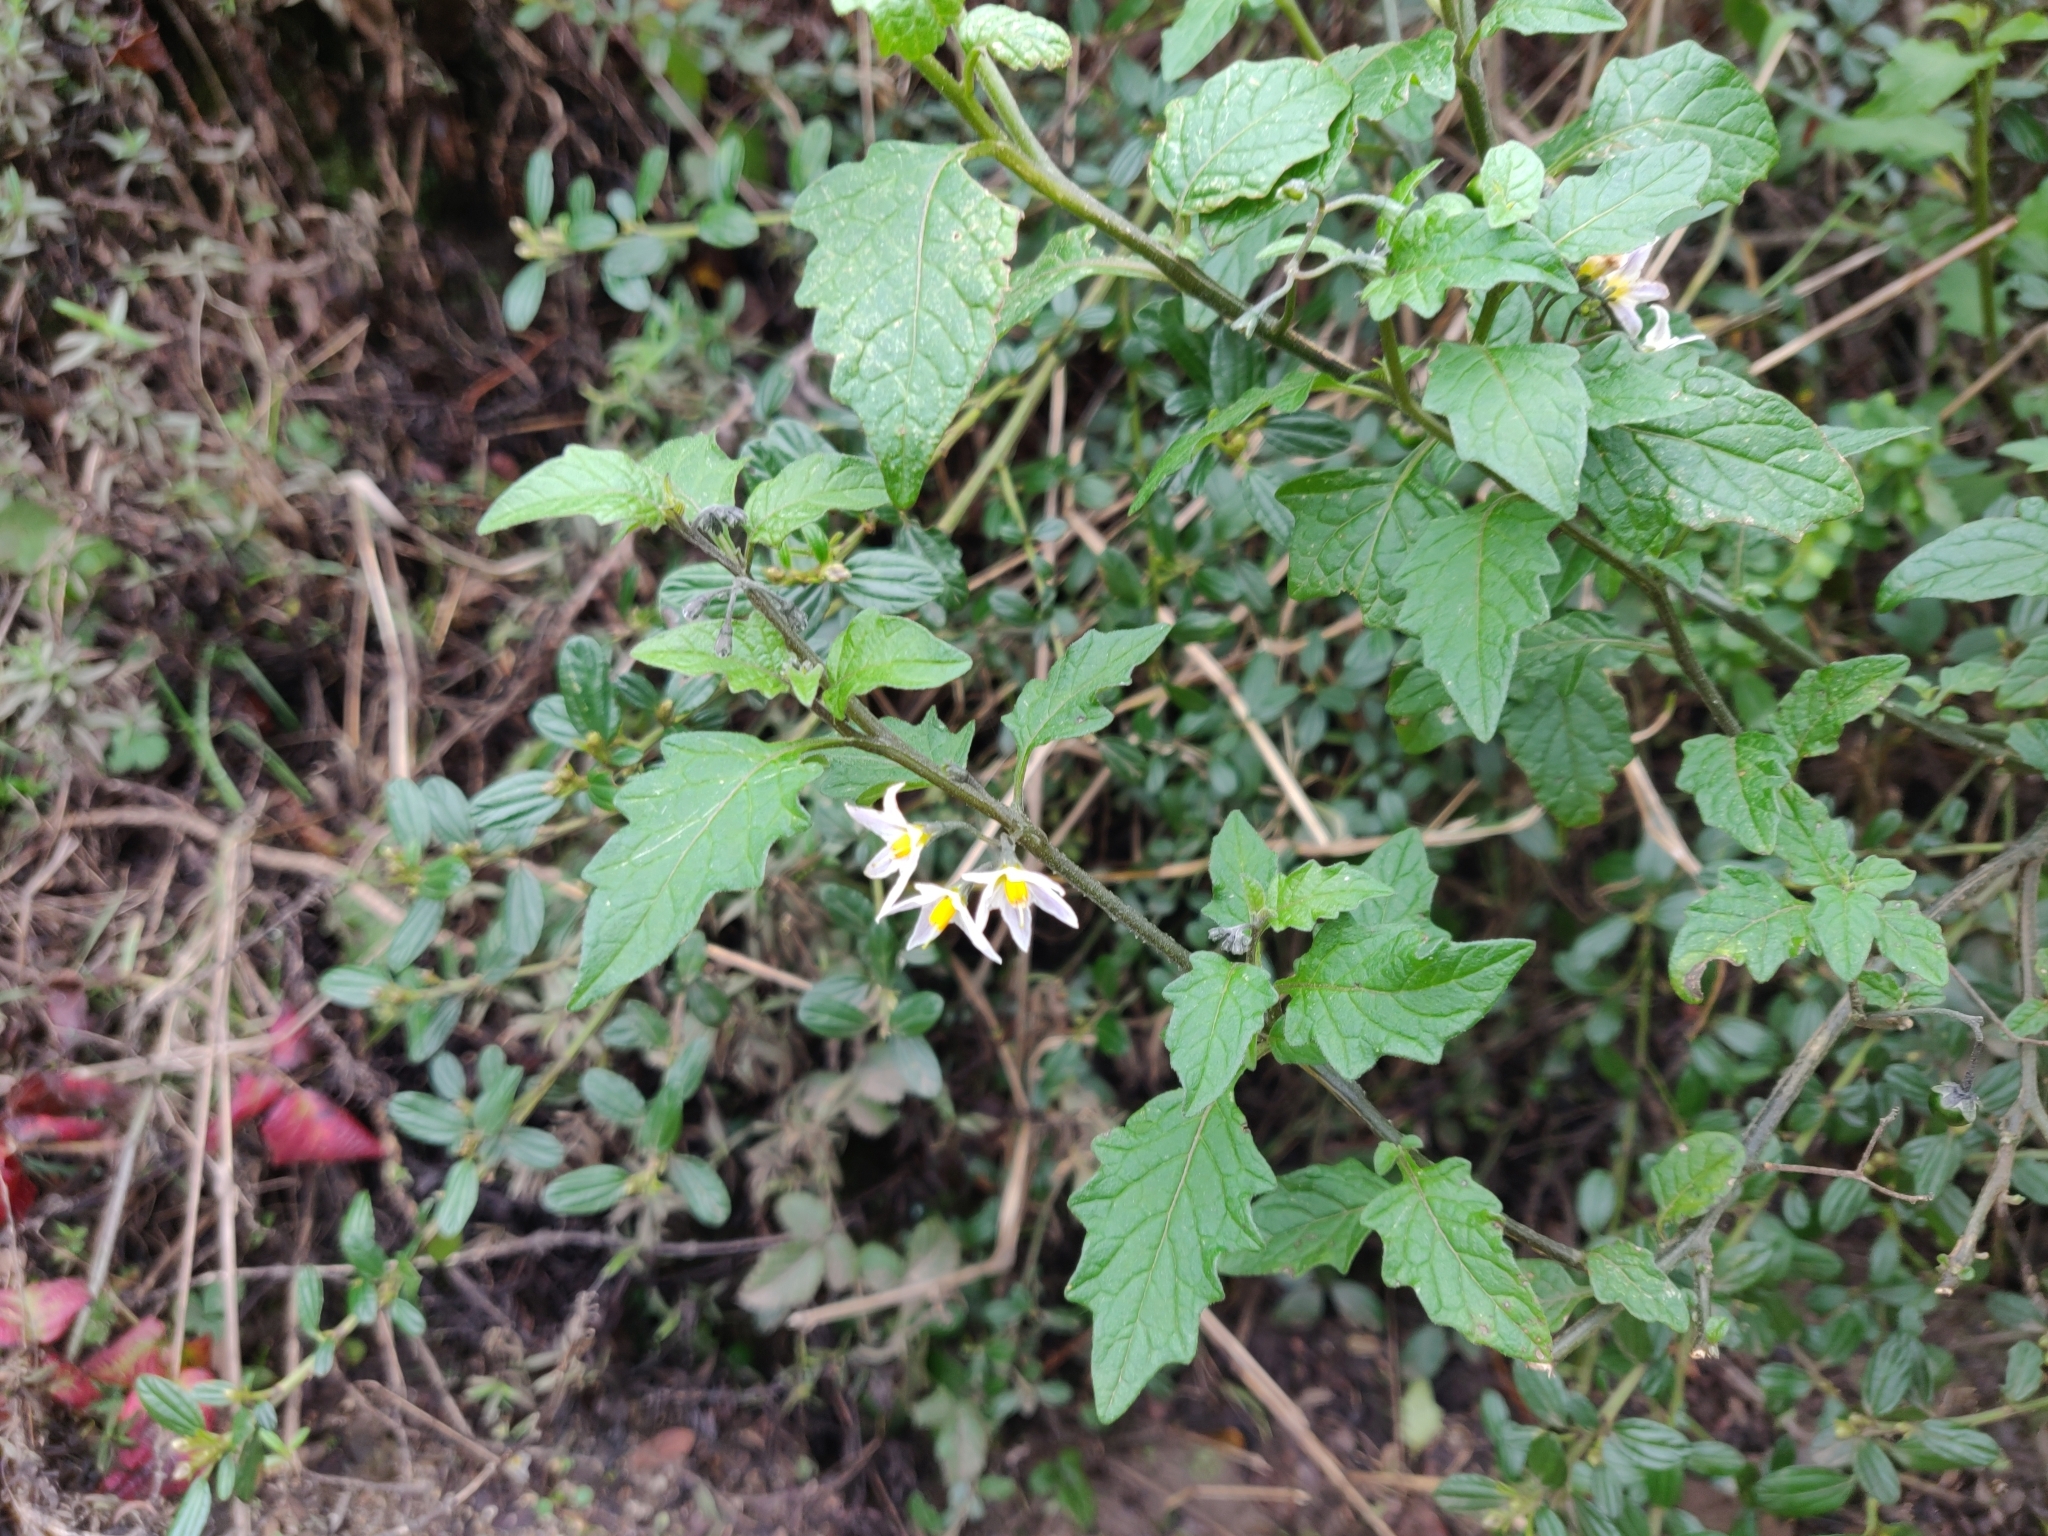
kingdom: Plantae
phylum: Tracheophyta
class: Magnoliopsida
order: Solanales
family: Solanaceae
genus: Solanum
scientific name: Solanum furcatum
